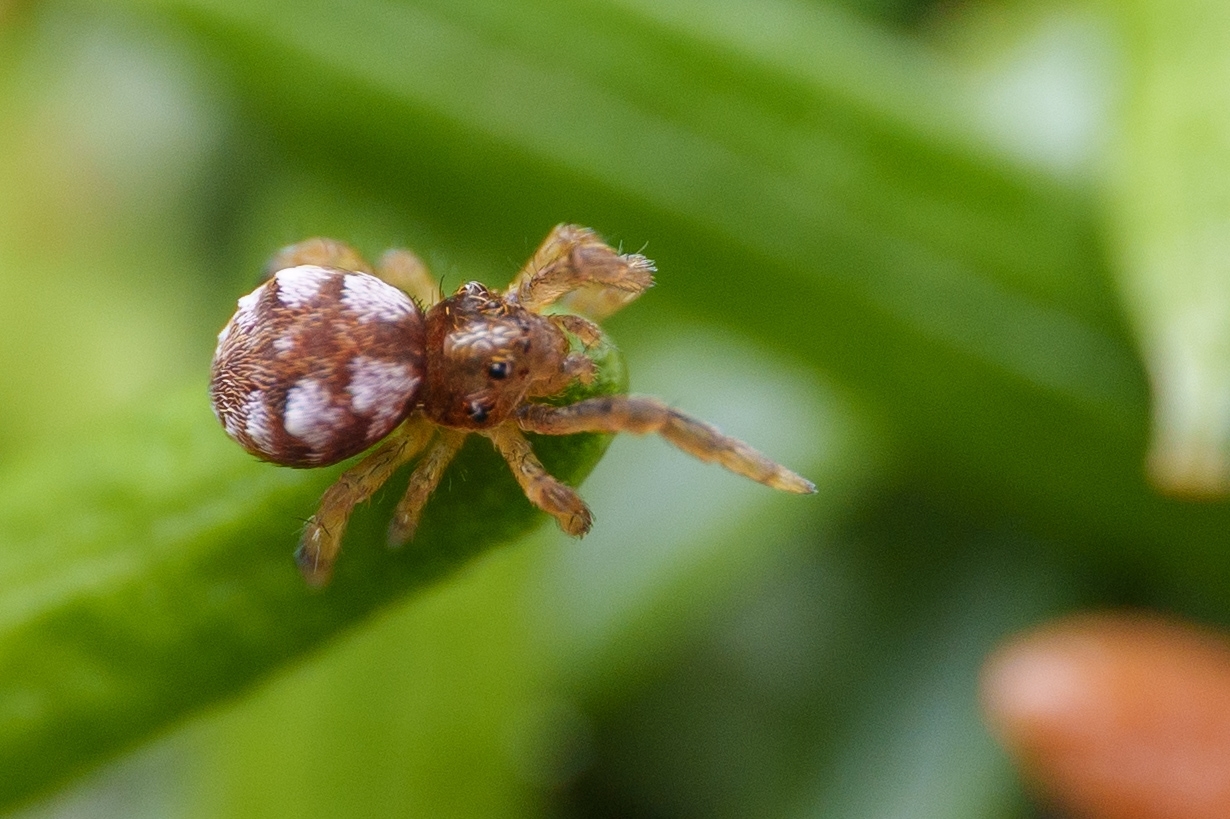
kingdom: Animalia
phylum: Arthropoda
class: Arachnida
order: Araneae
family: Uloboridae
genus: Hyptiotes
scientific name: Hyptiotes gertschi
